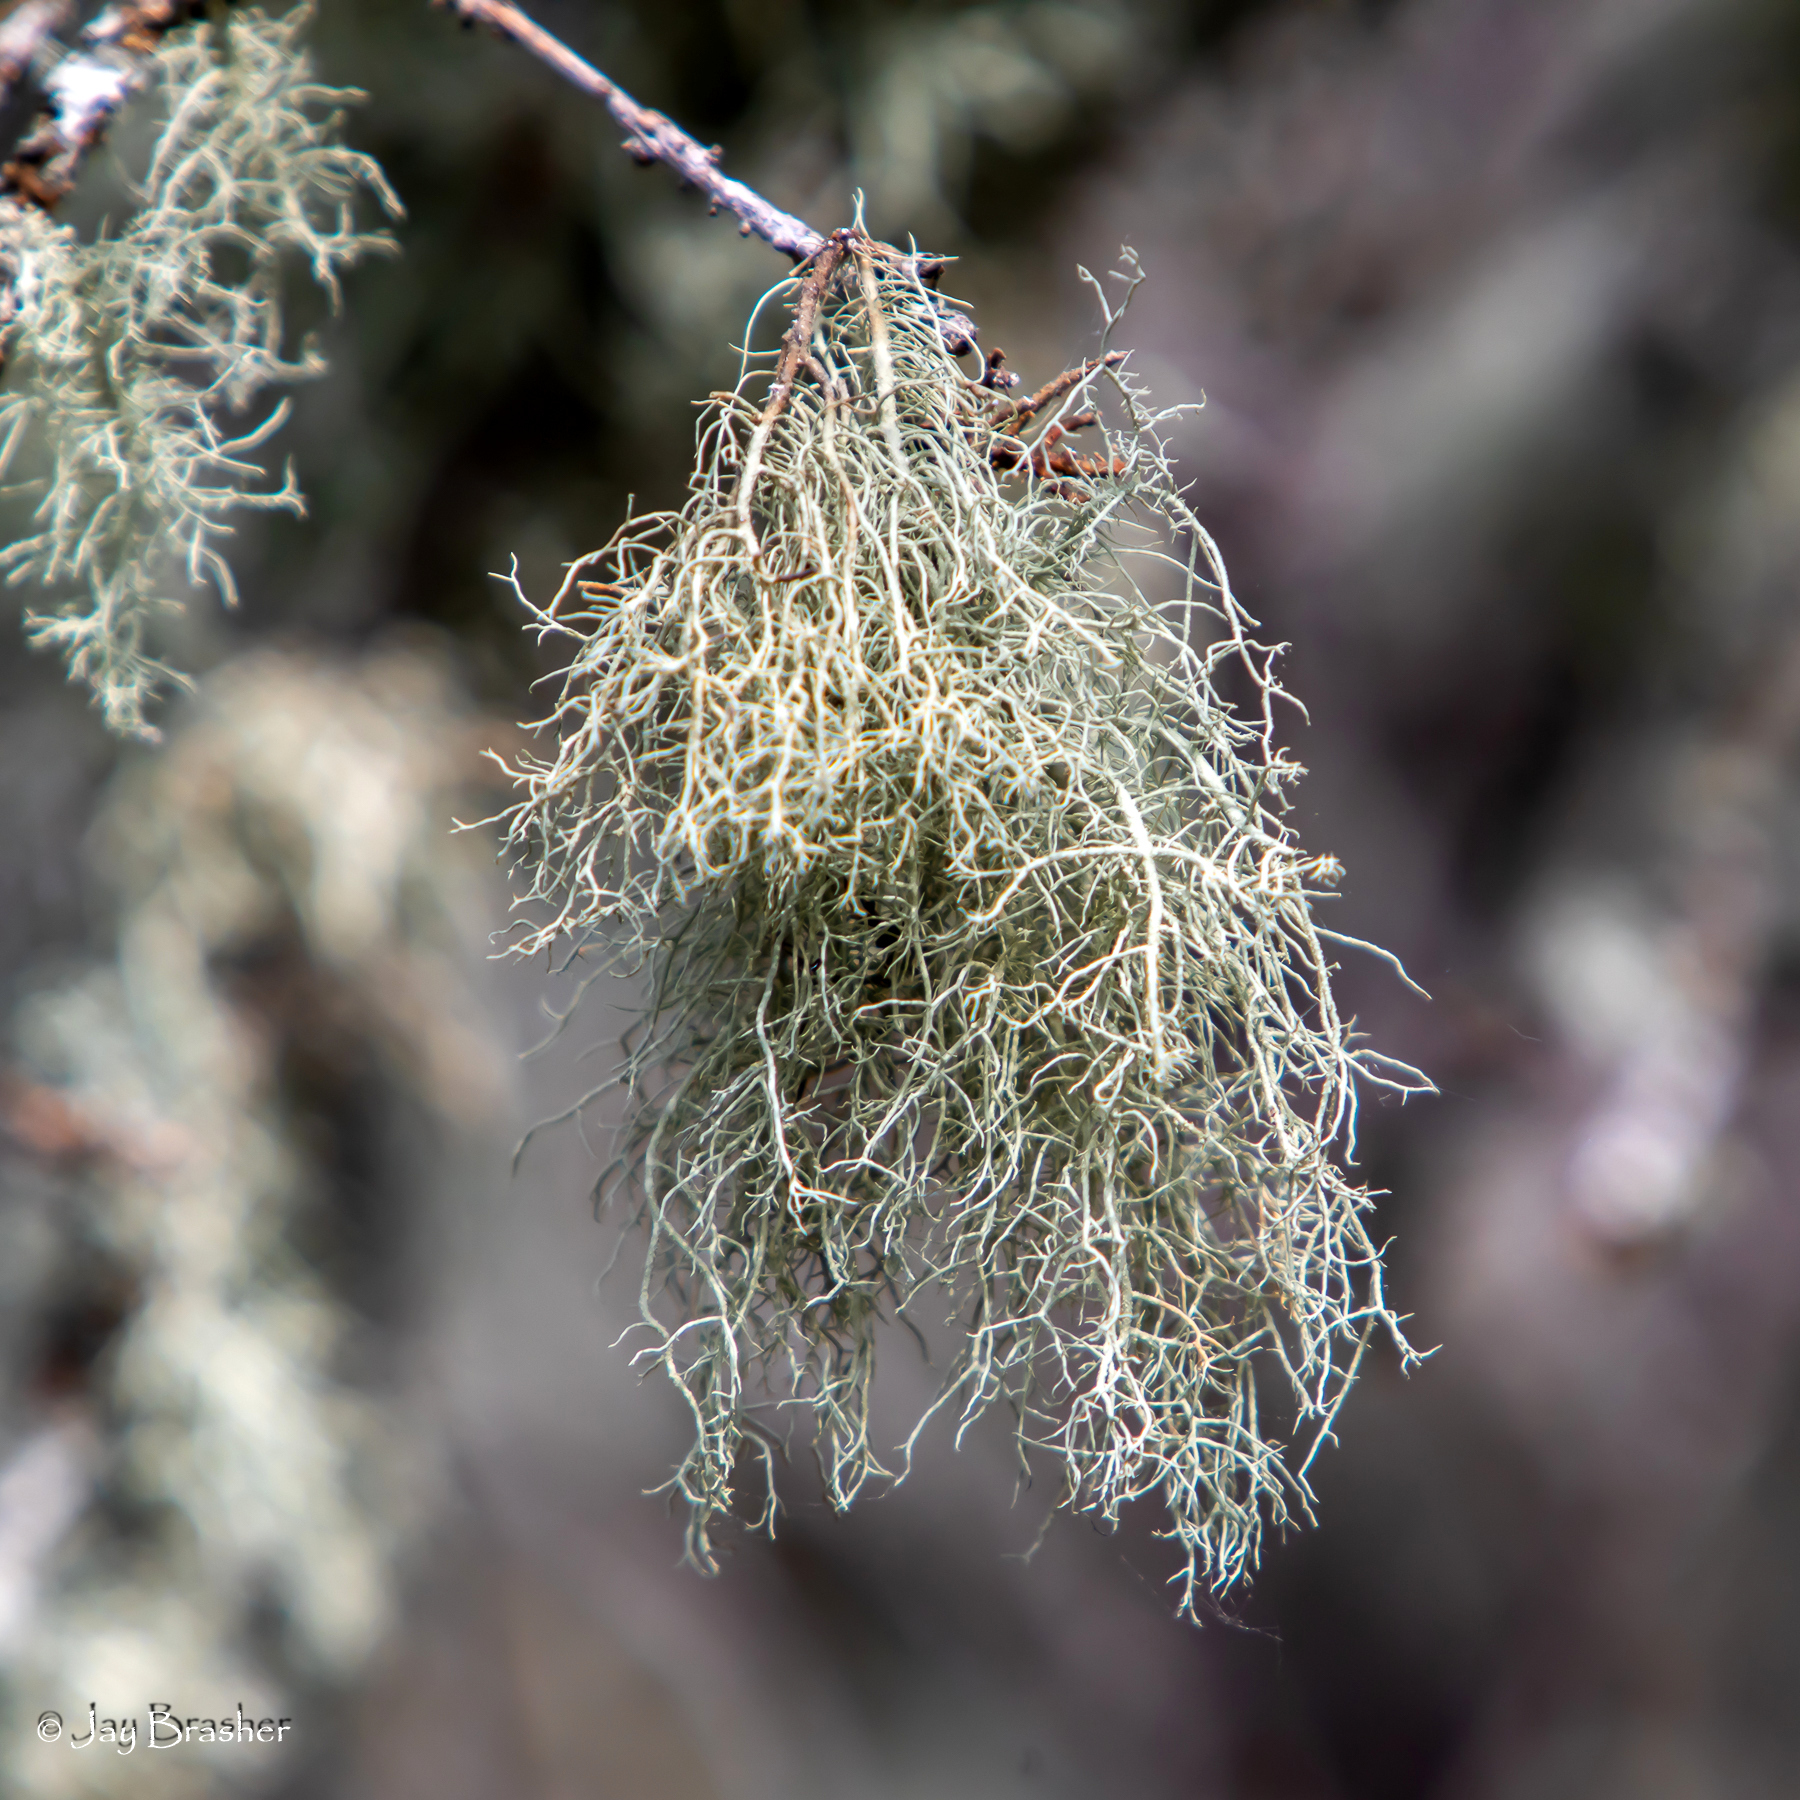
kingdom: Fungi
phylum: Ascomycota
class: Lecanoromycetes
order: Lecanorales
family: Parmeliaceae
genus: Usnea
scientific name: Usnea subfloridana
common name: Boreal beard lichen
